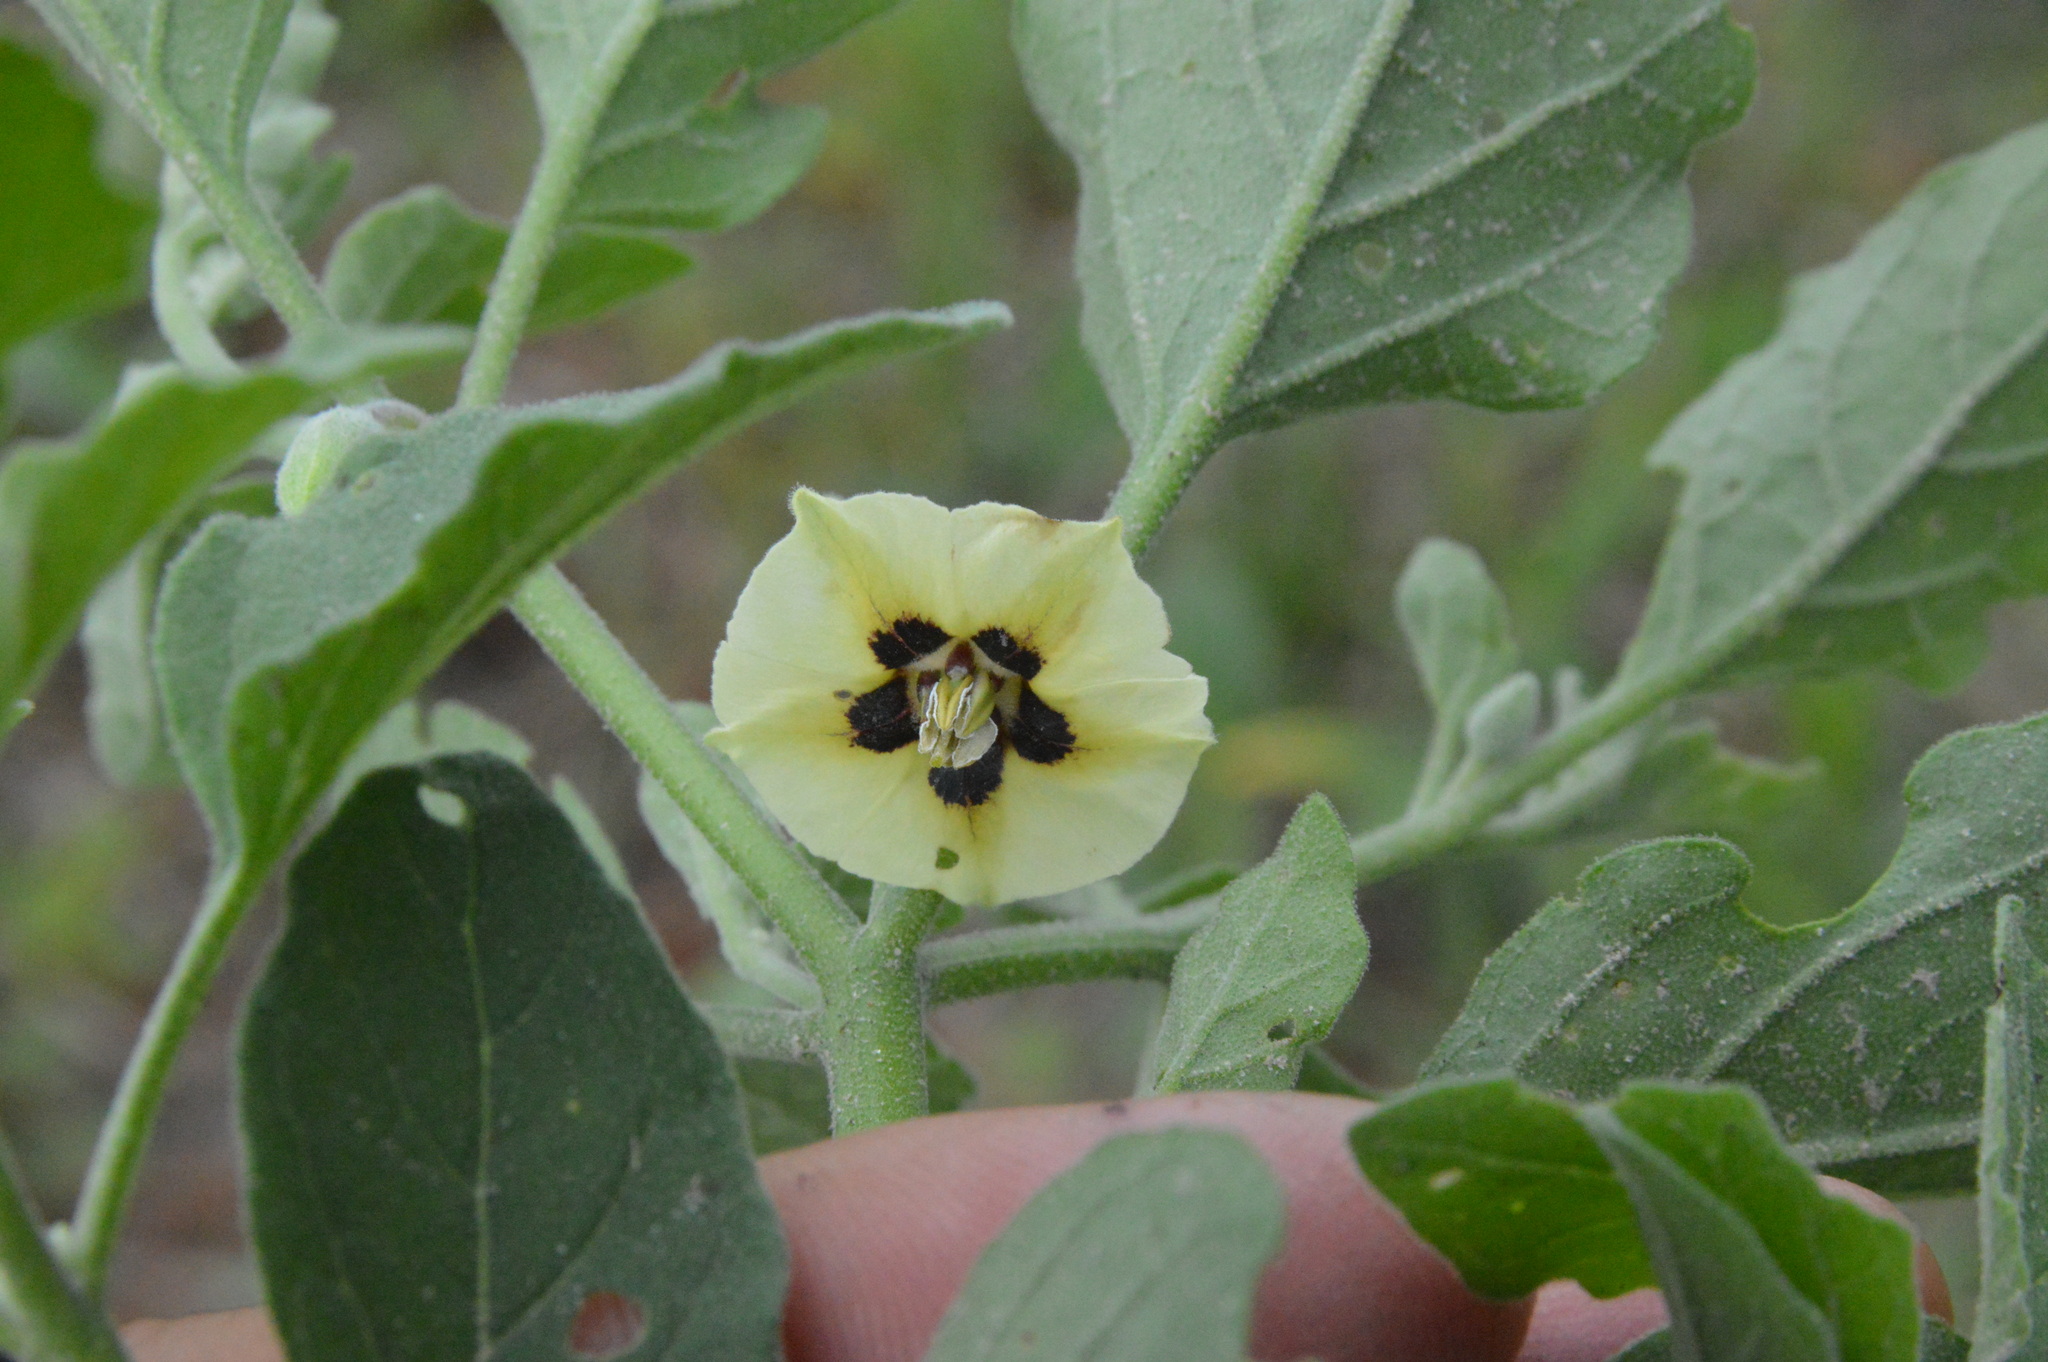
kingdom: Plantae
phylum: Tracheophyta
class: Magnoliopsida
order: Solanales
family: Solanaceae
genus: Physalis
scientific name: Physalis cinerascens
